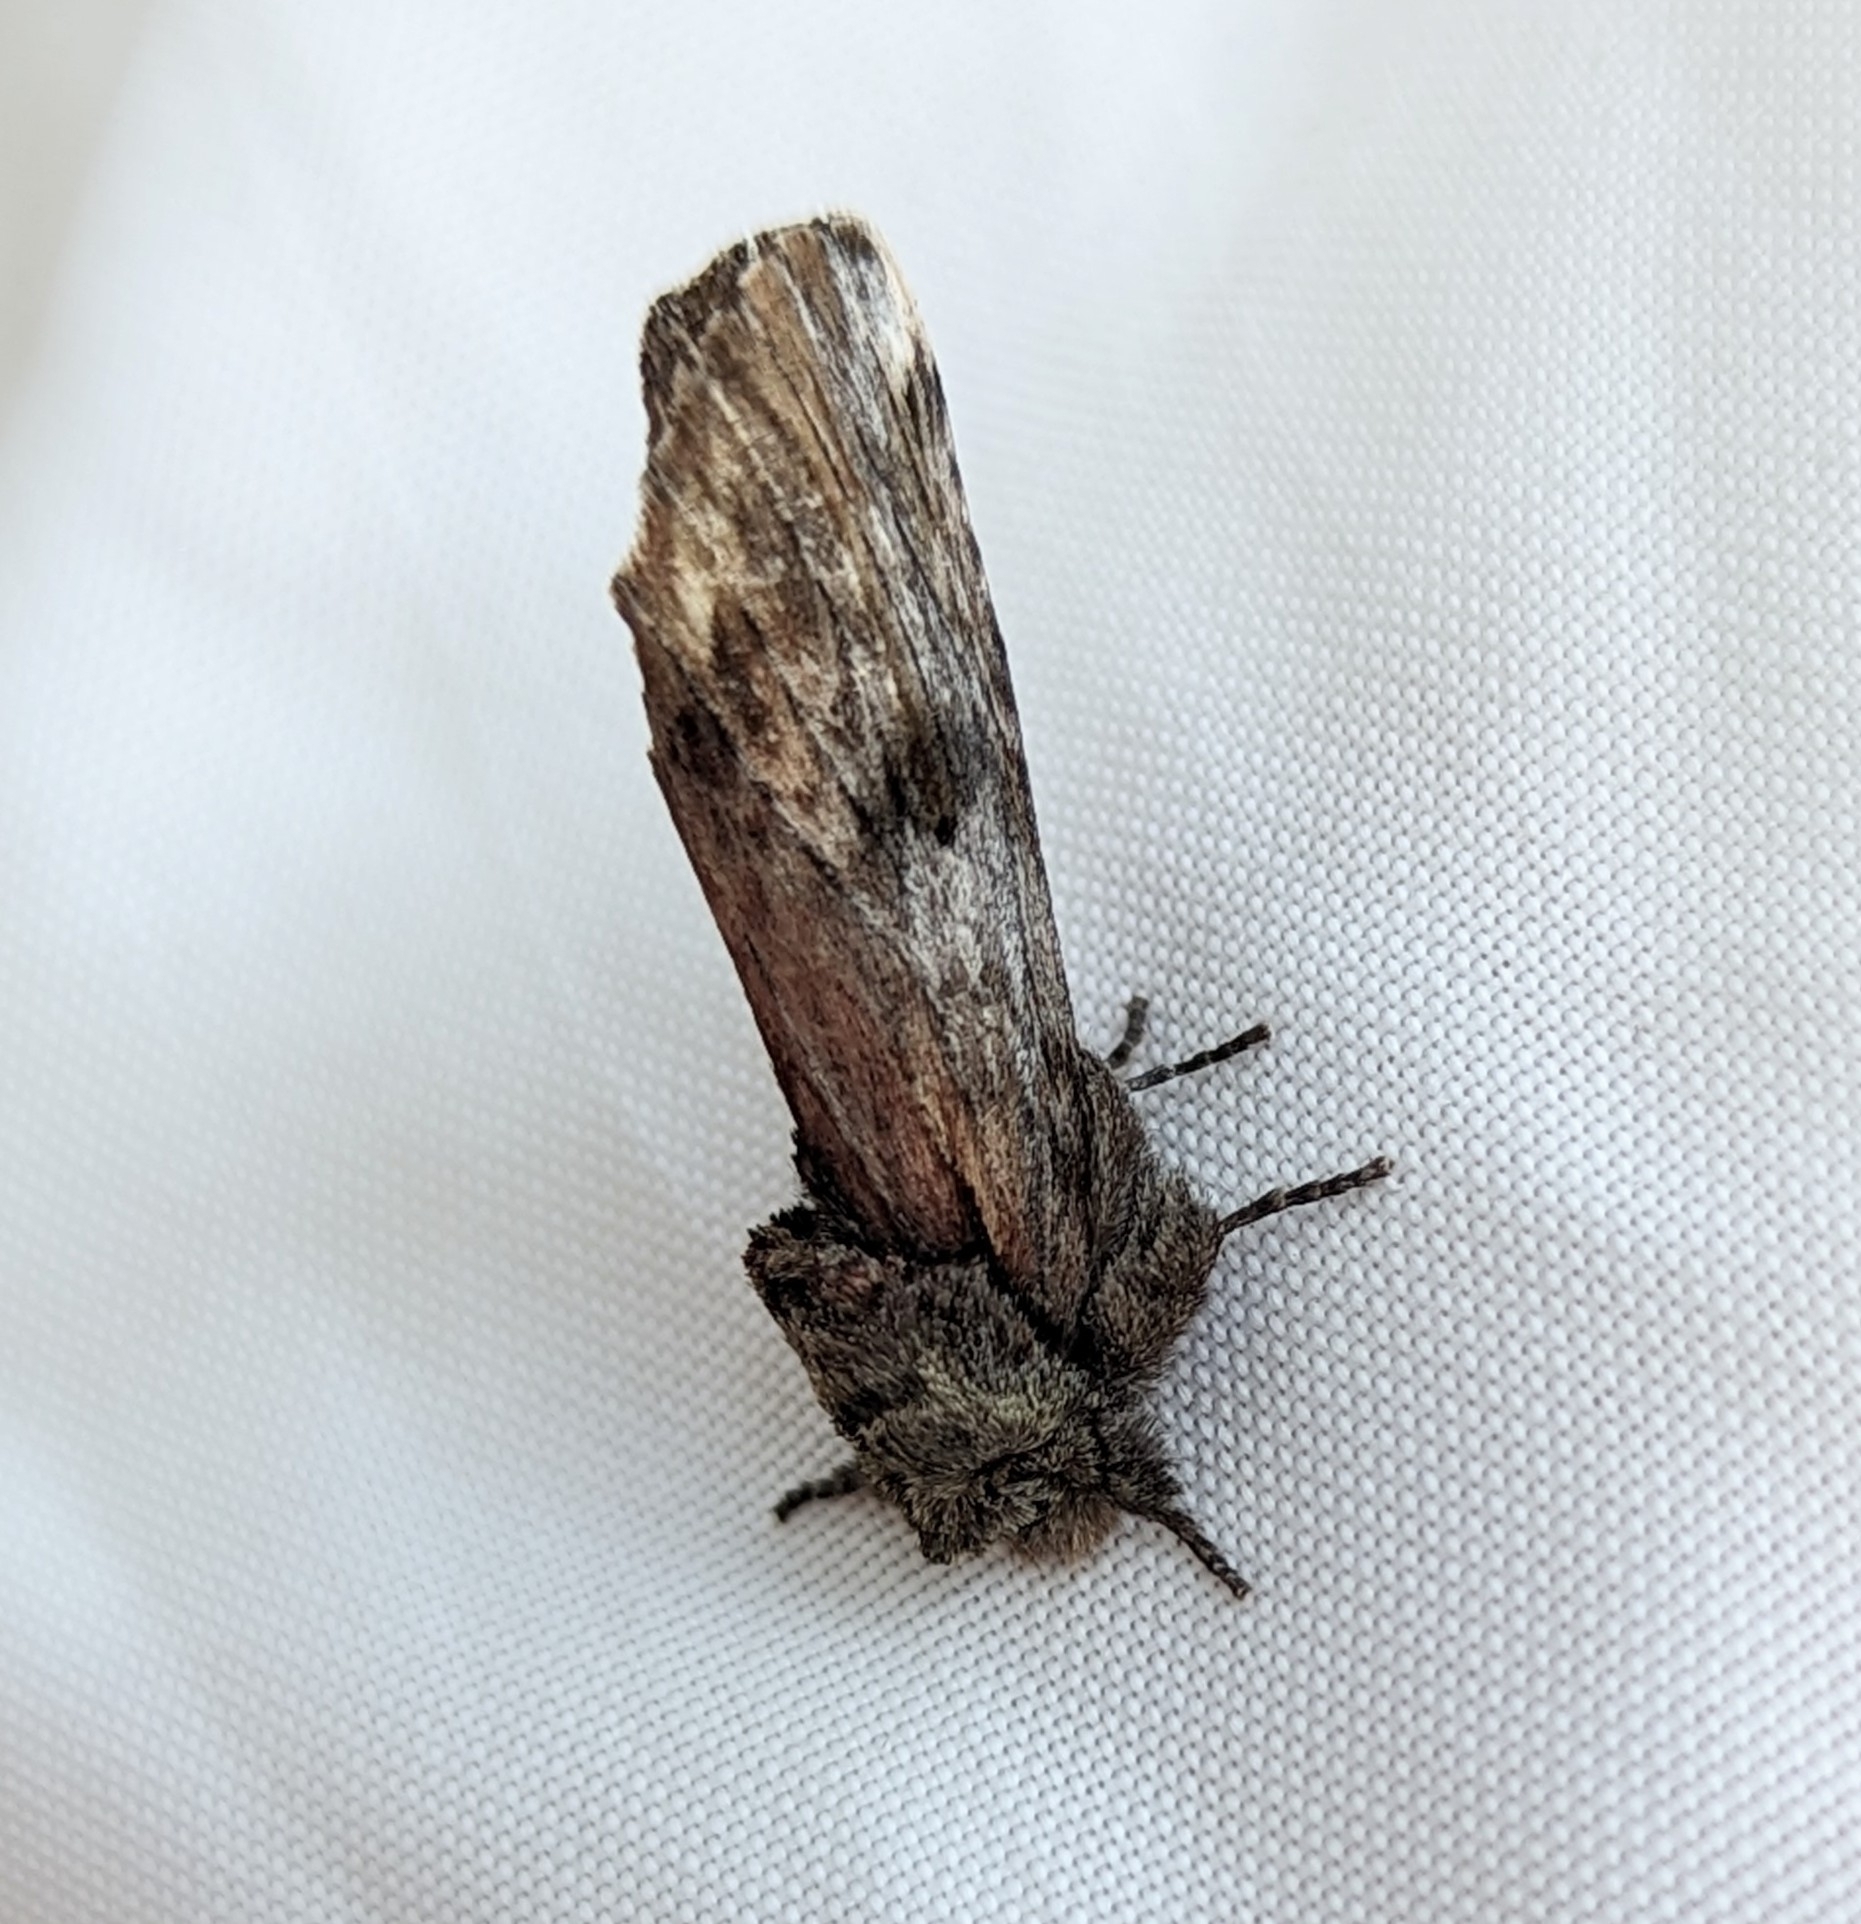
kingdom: Animalia
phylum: Arthropoda
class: Insecta
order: Lepidoptera
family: Notodontidae
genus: Schizura
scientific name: Schizura
